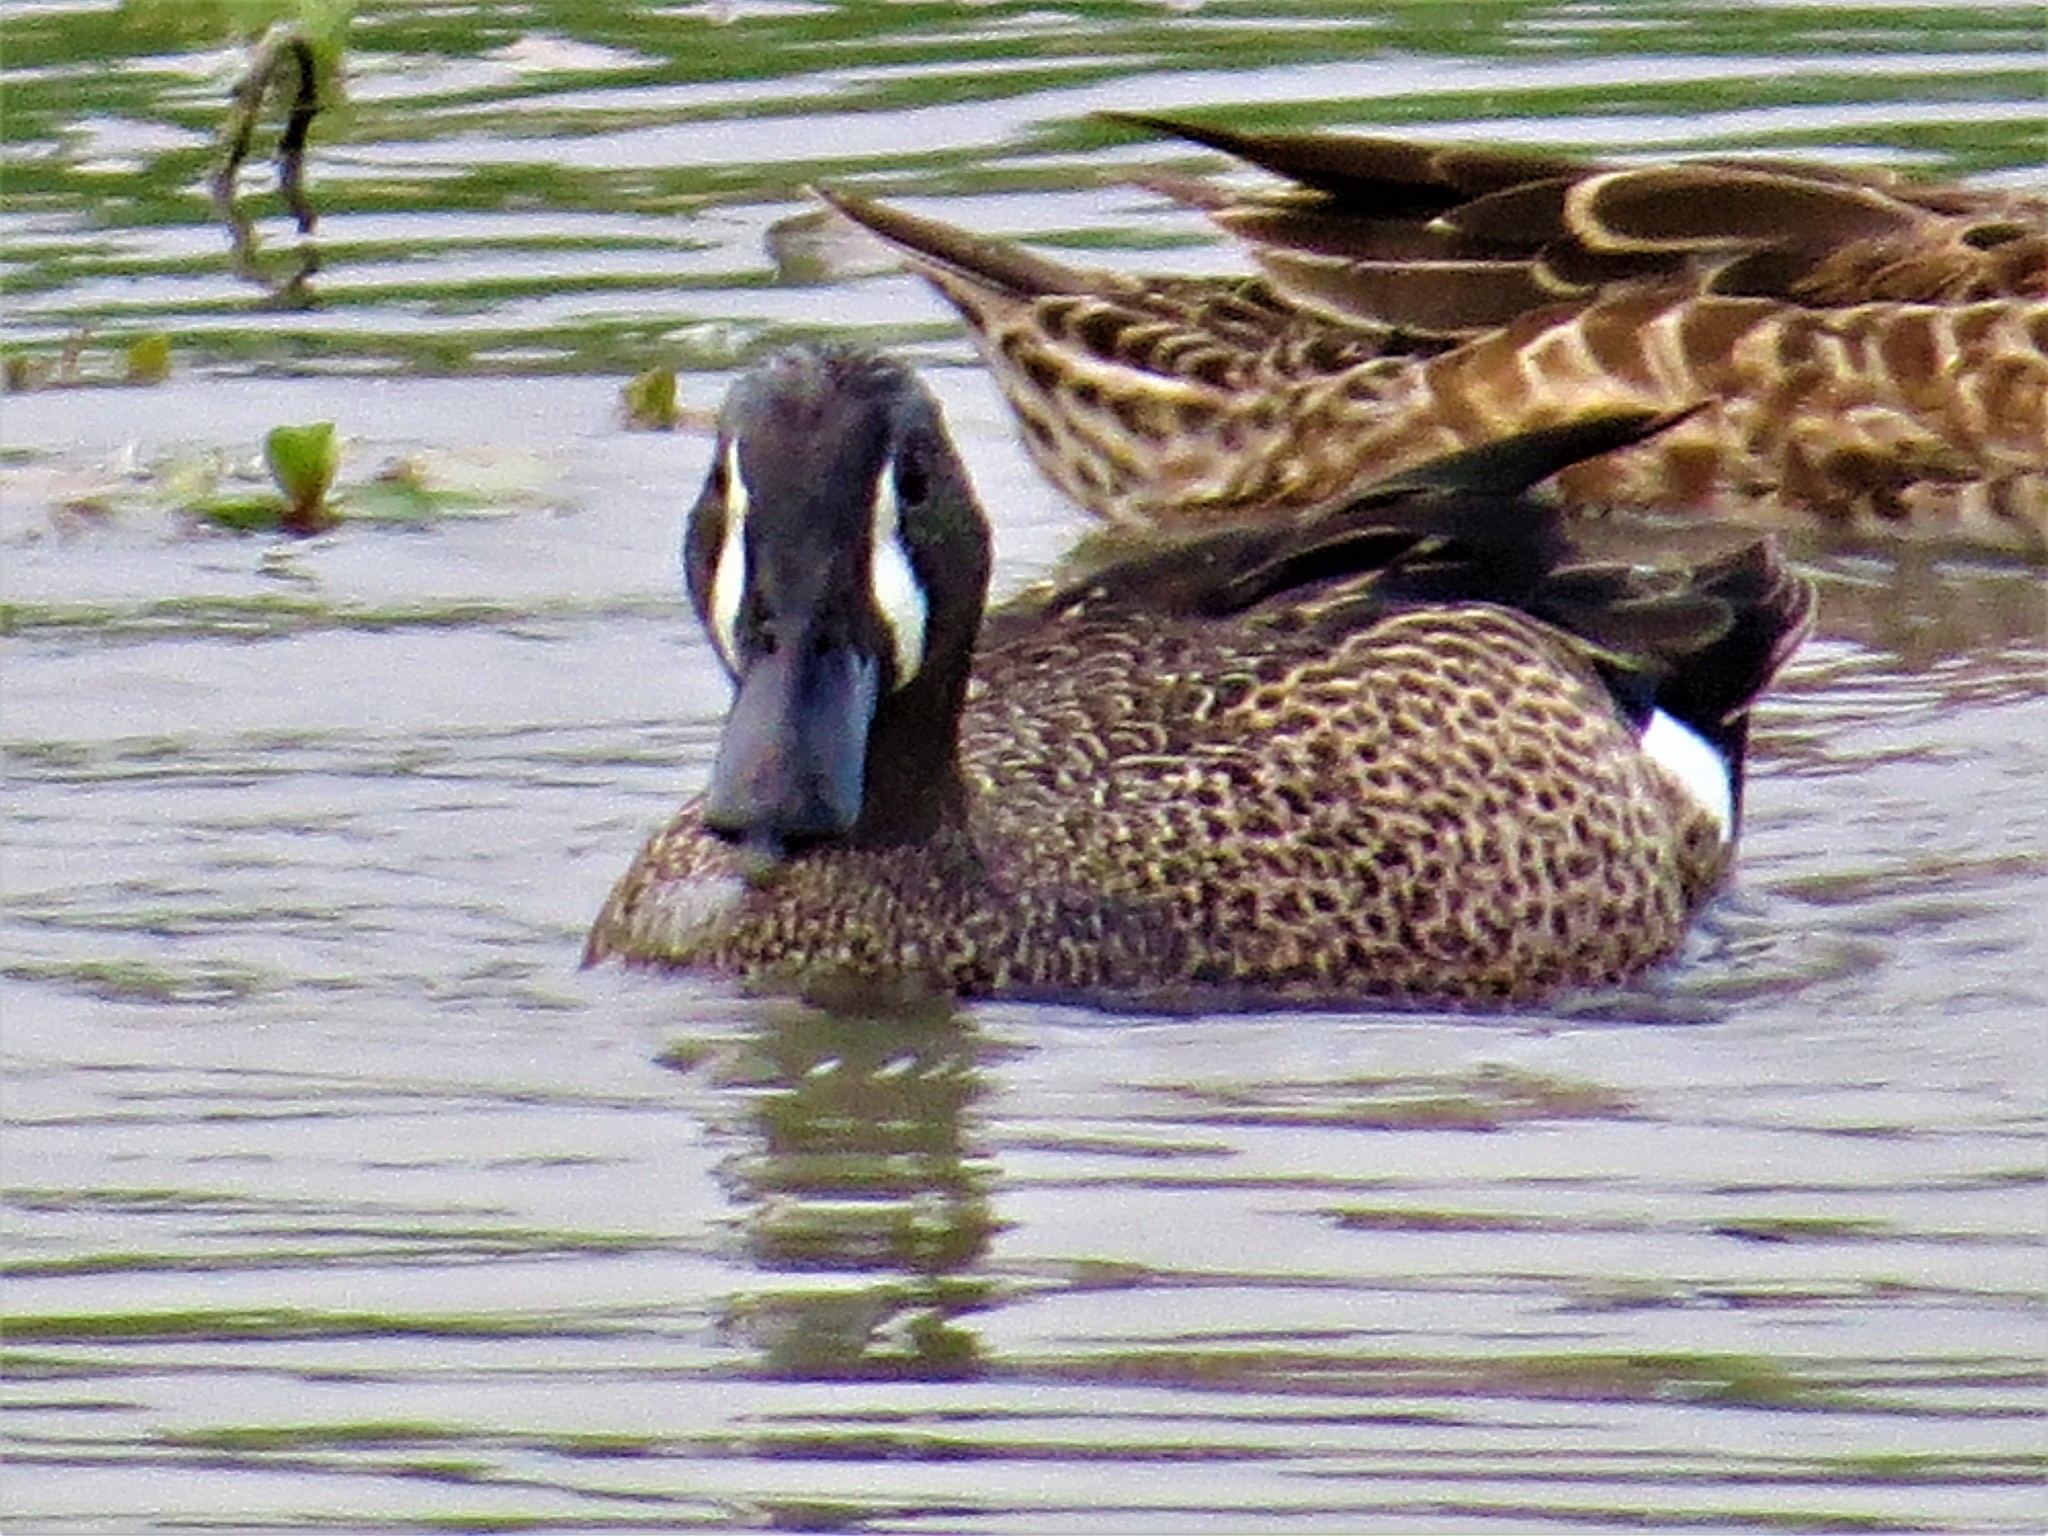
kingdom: Animalia
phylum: Chordata
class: Aves
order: Anseriformes
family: Anatidae
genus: Spatula
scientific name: Spatula discors
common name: Blue-winged teal
